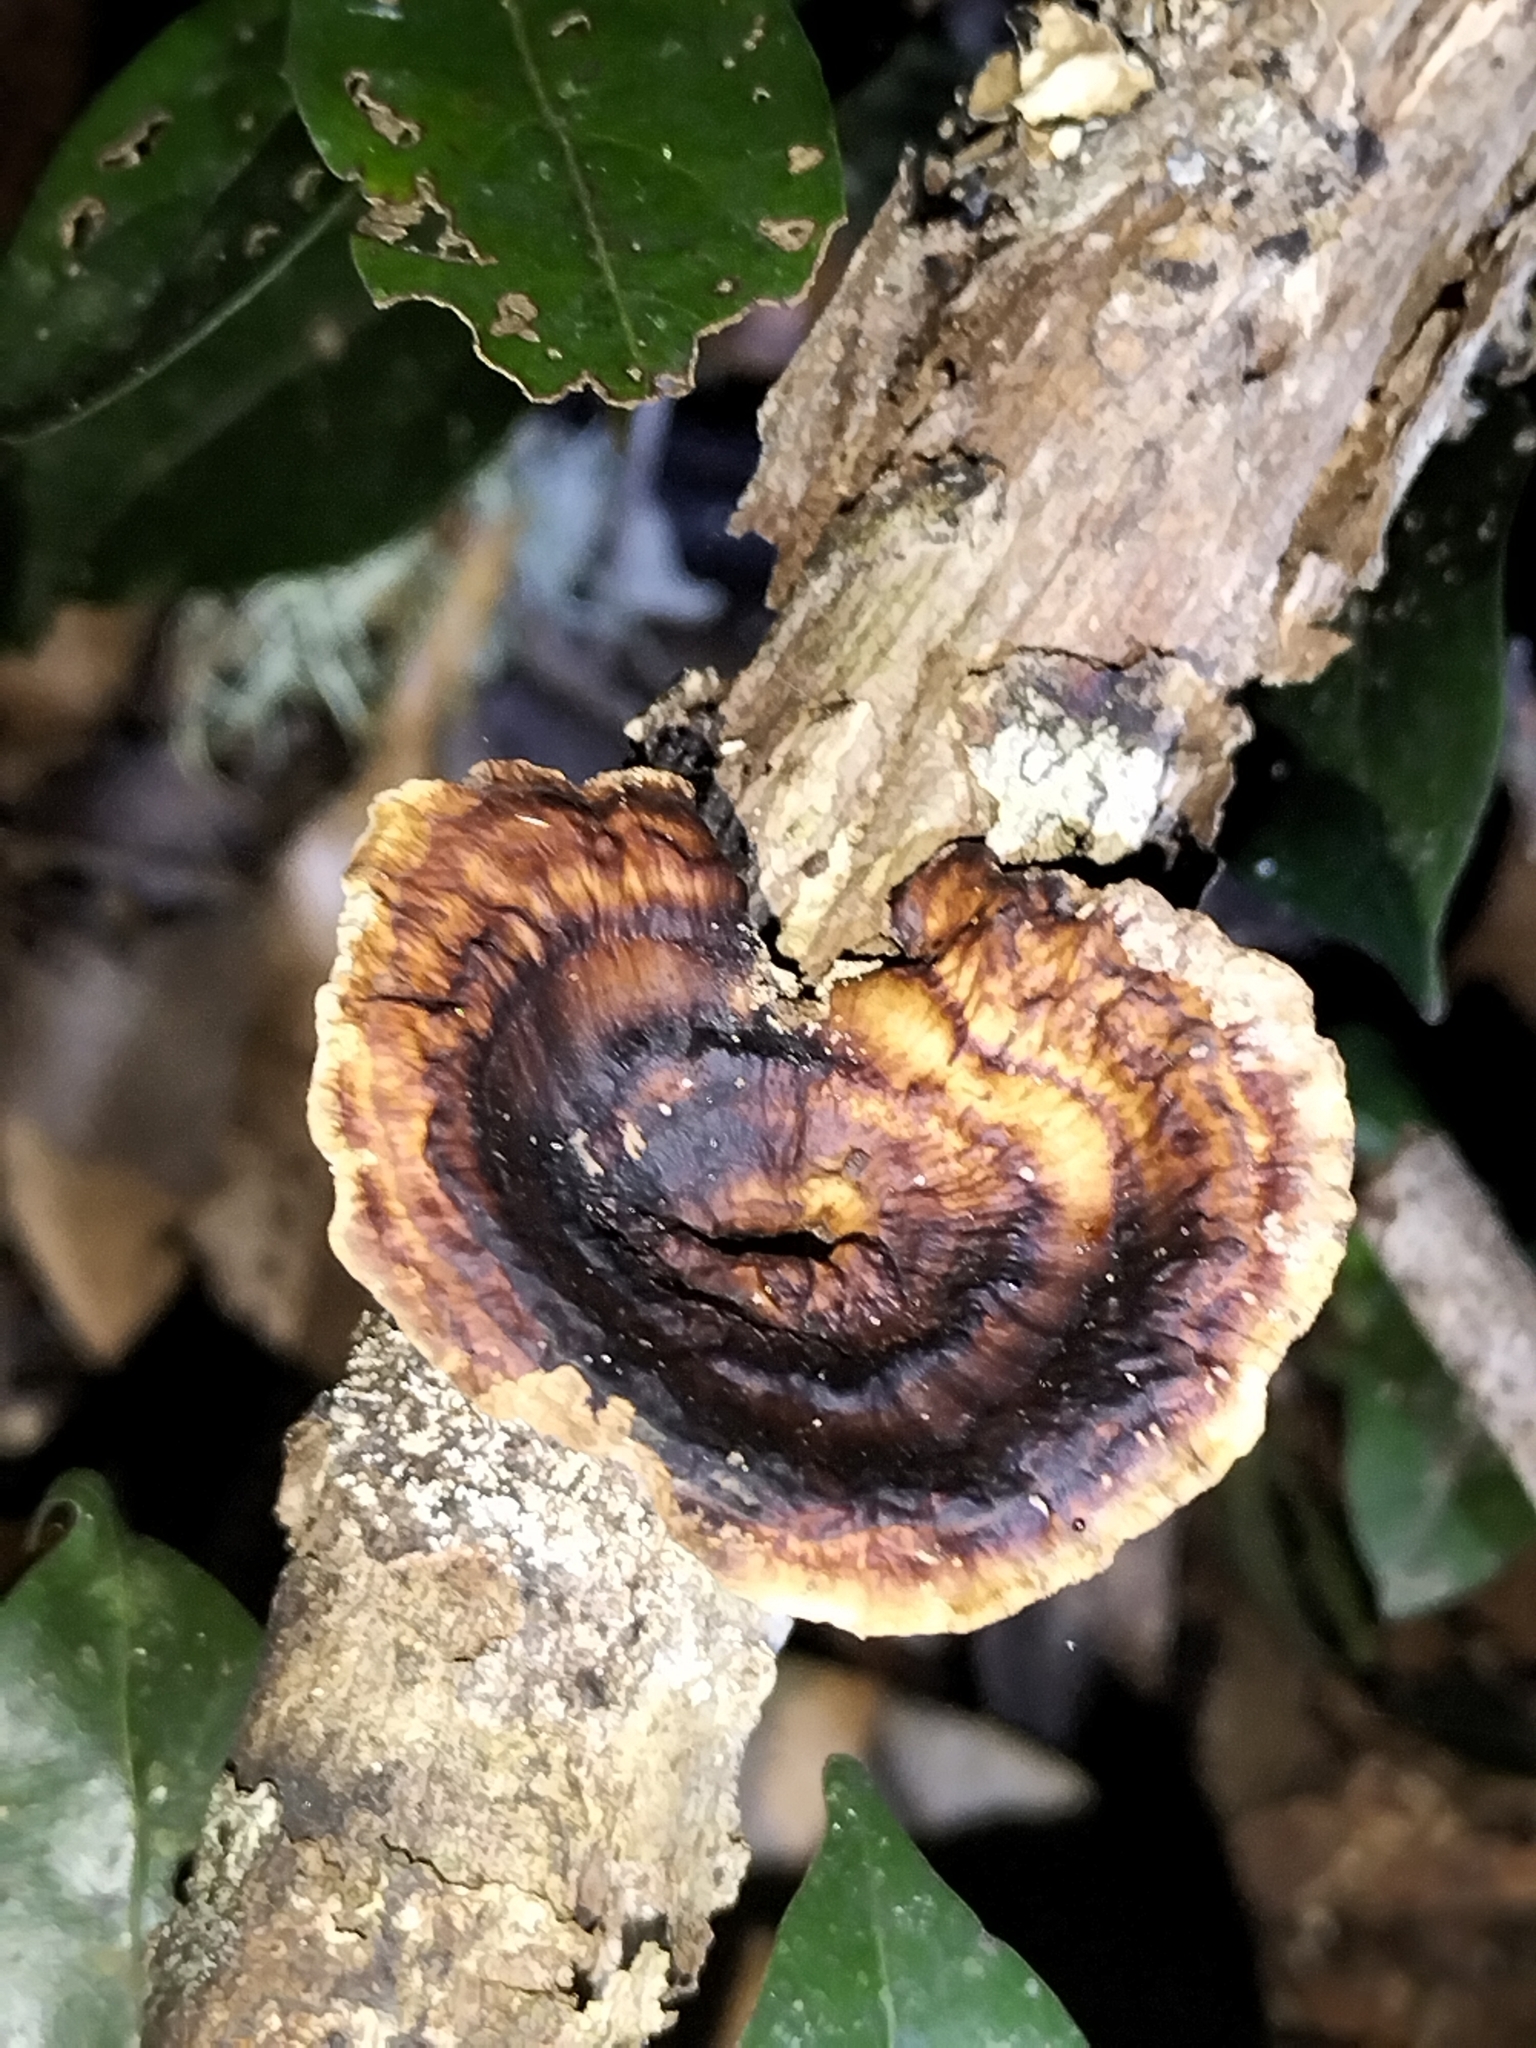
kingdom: Fungi
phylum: Basidiomycota
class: Agaricomycetes
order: Polyporales
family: Polyporaceae
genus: Microporus
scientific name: Microporus xanthopus
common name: Yellow-stemmed micropore
